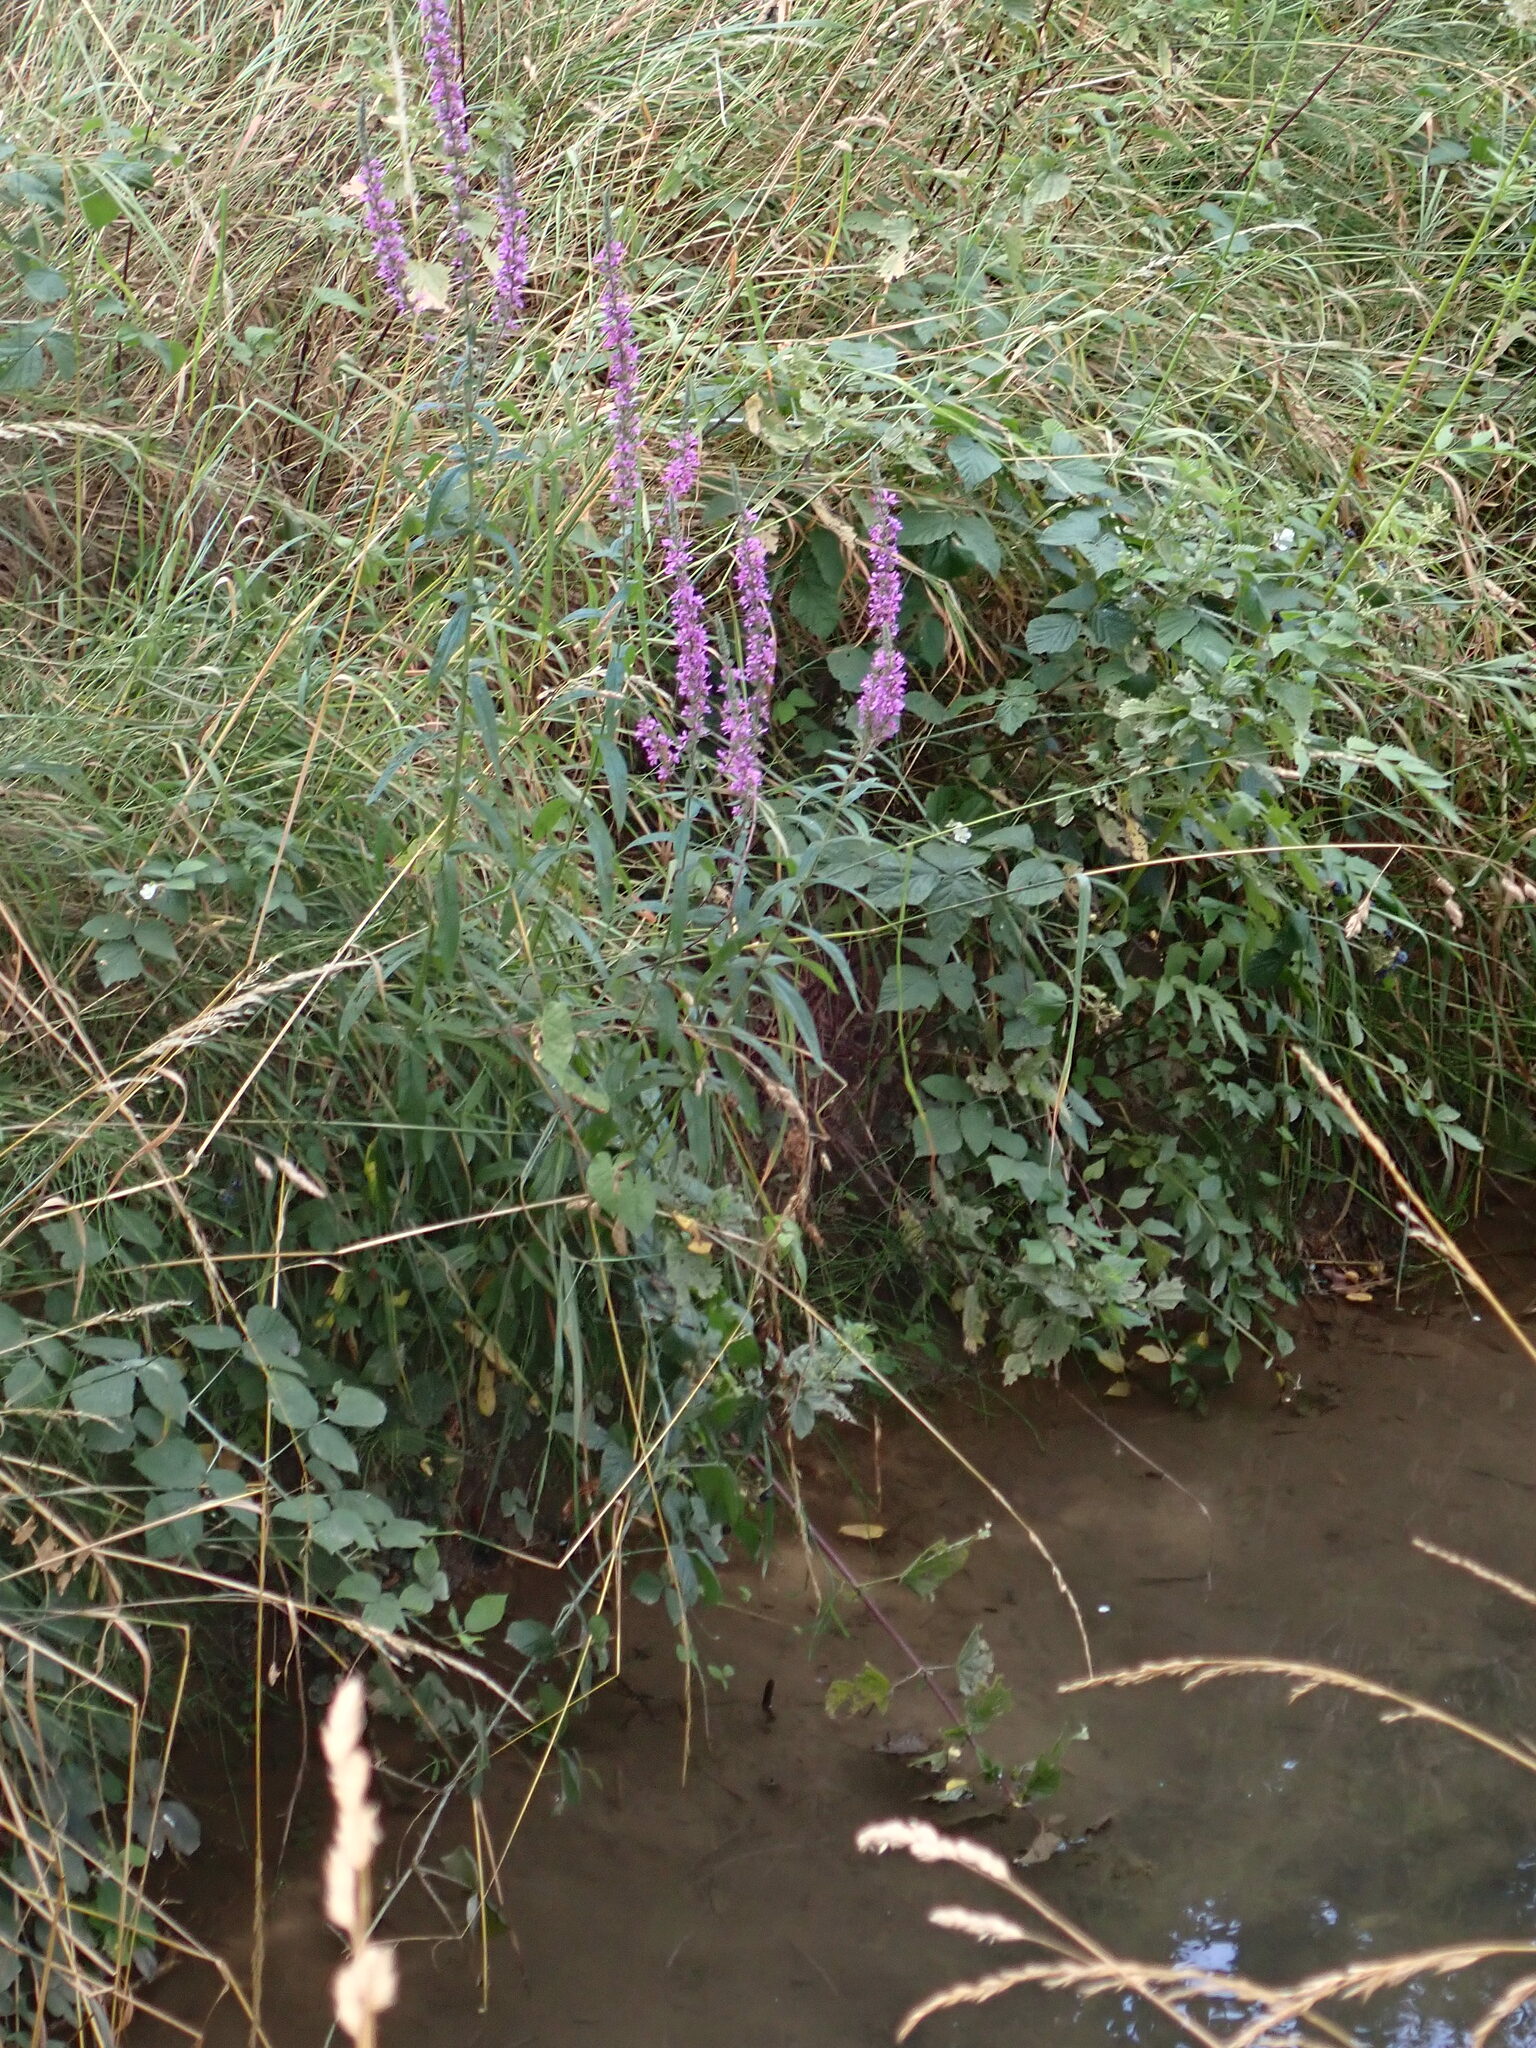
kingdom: Plantae
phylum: Tracheophyta
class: Magnoliopsida
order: Myrtales
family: Lythraceae
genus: Lythrum
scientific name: Lythrum salicaria
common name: Purple loosestrife
